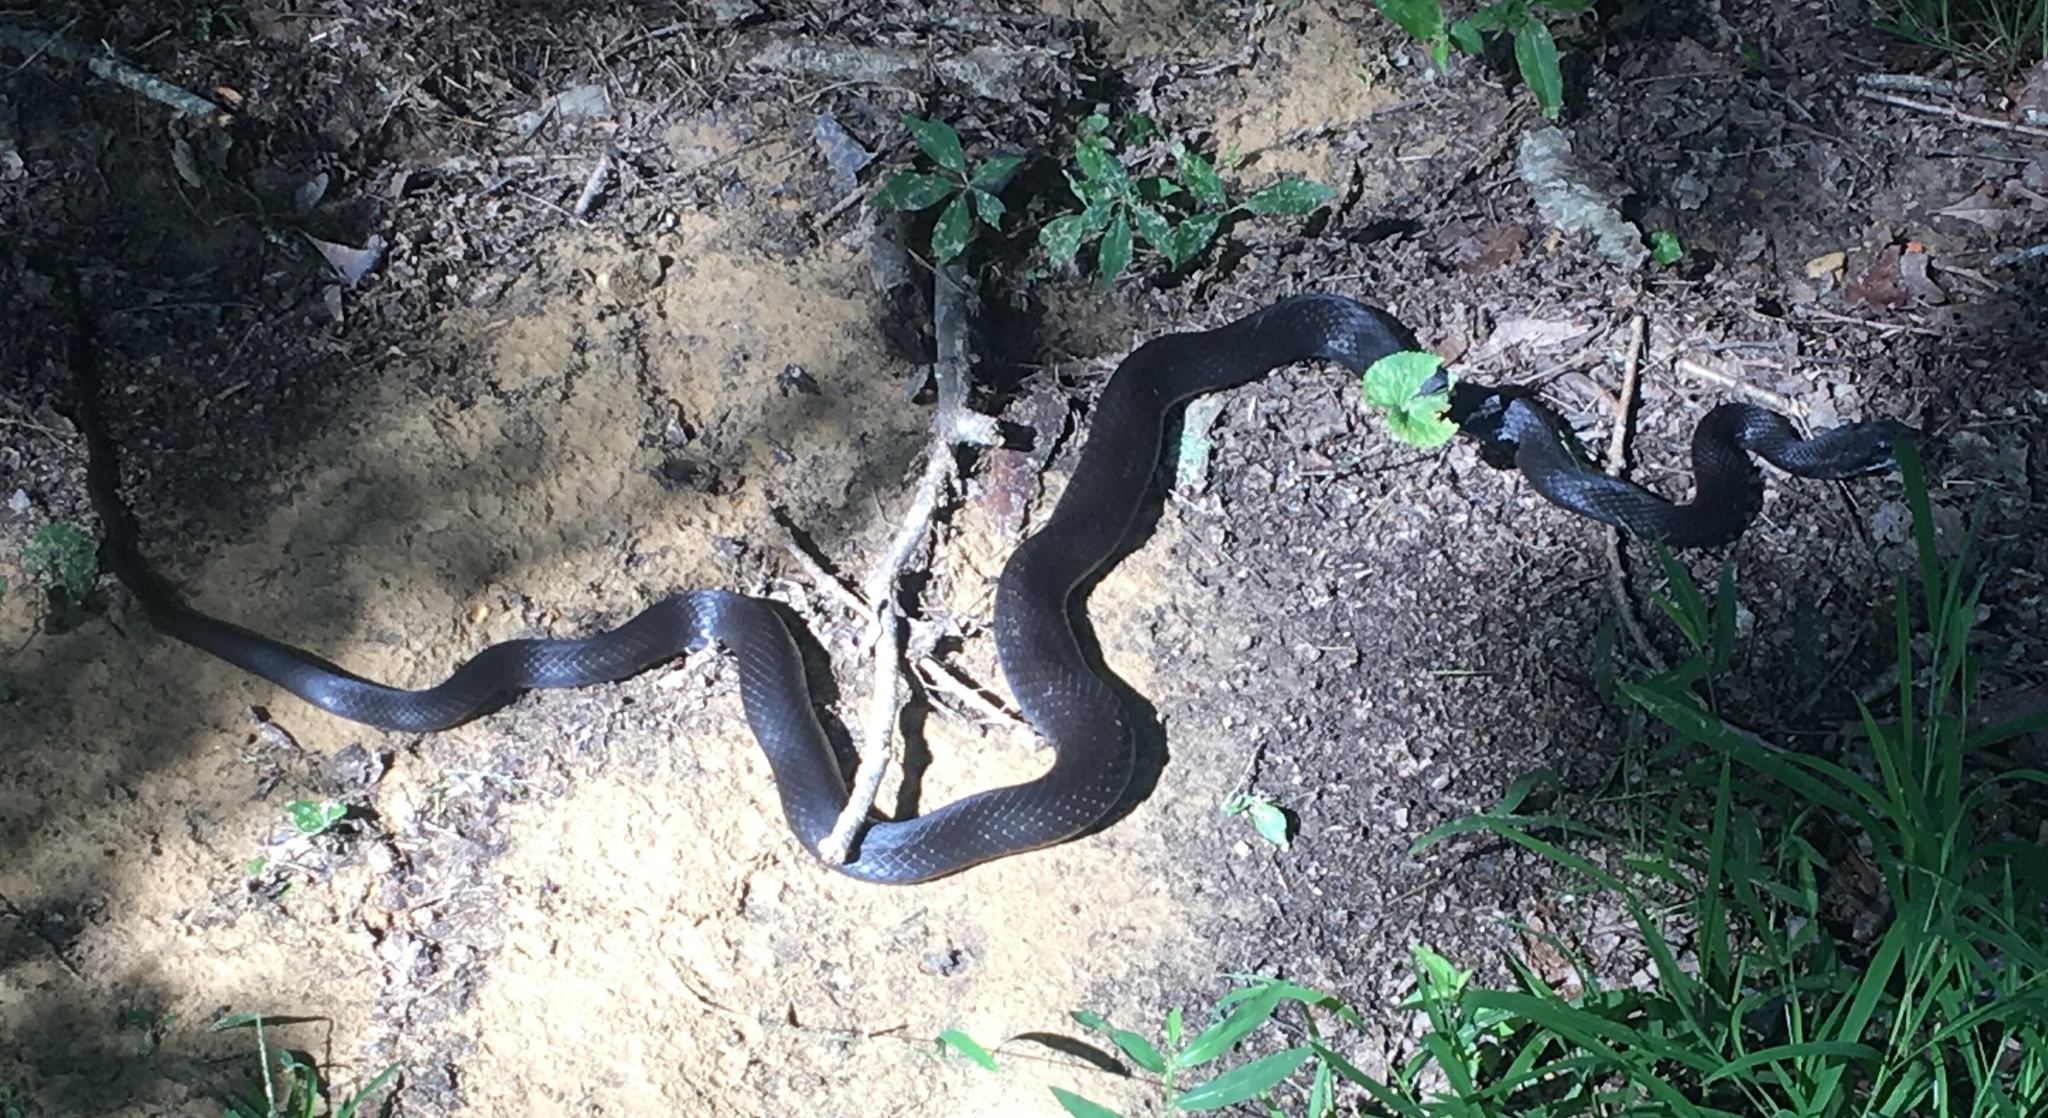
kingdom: Animalia
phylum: Chordata
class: Squamata
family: Colubridae
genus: Coluber
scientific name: Coluber constrictor
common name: Eastern racer
